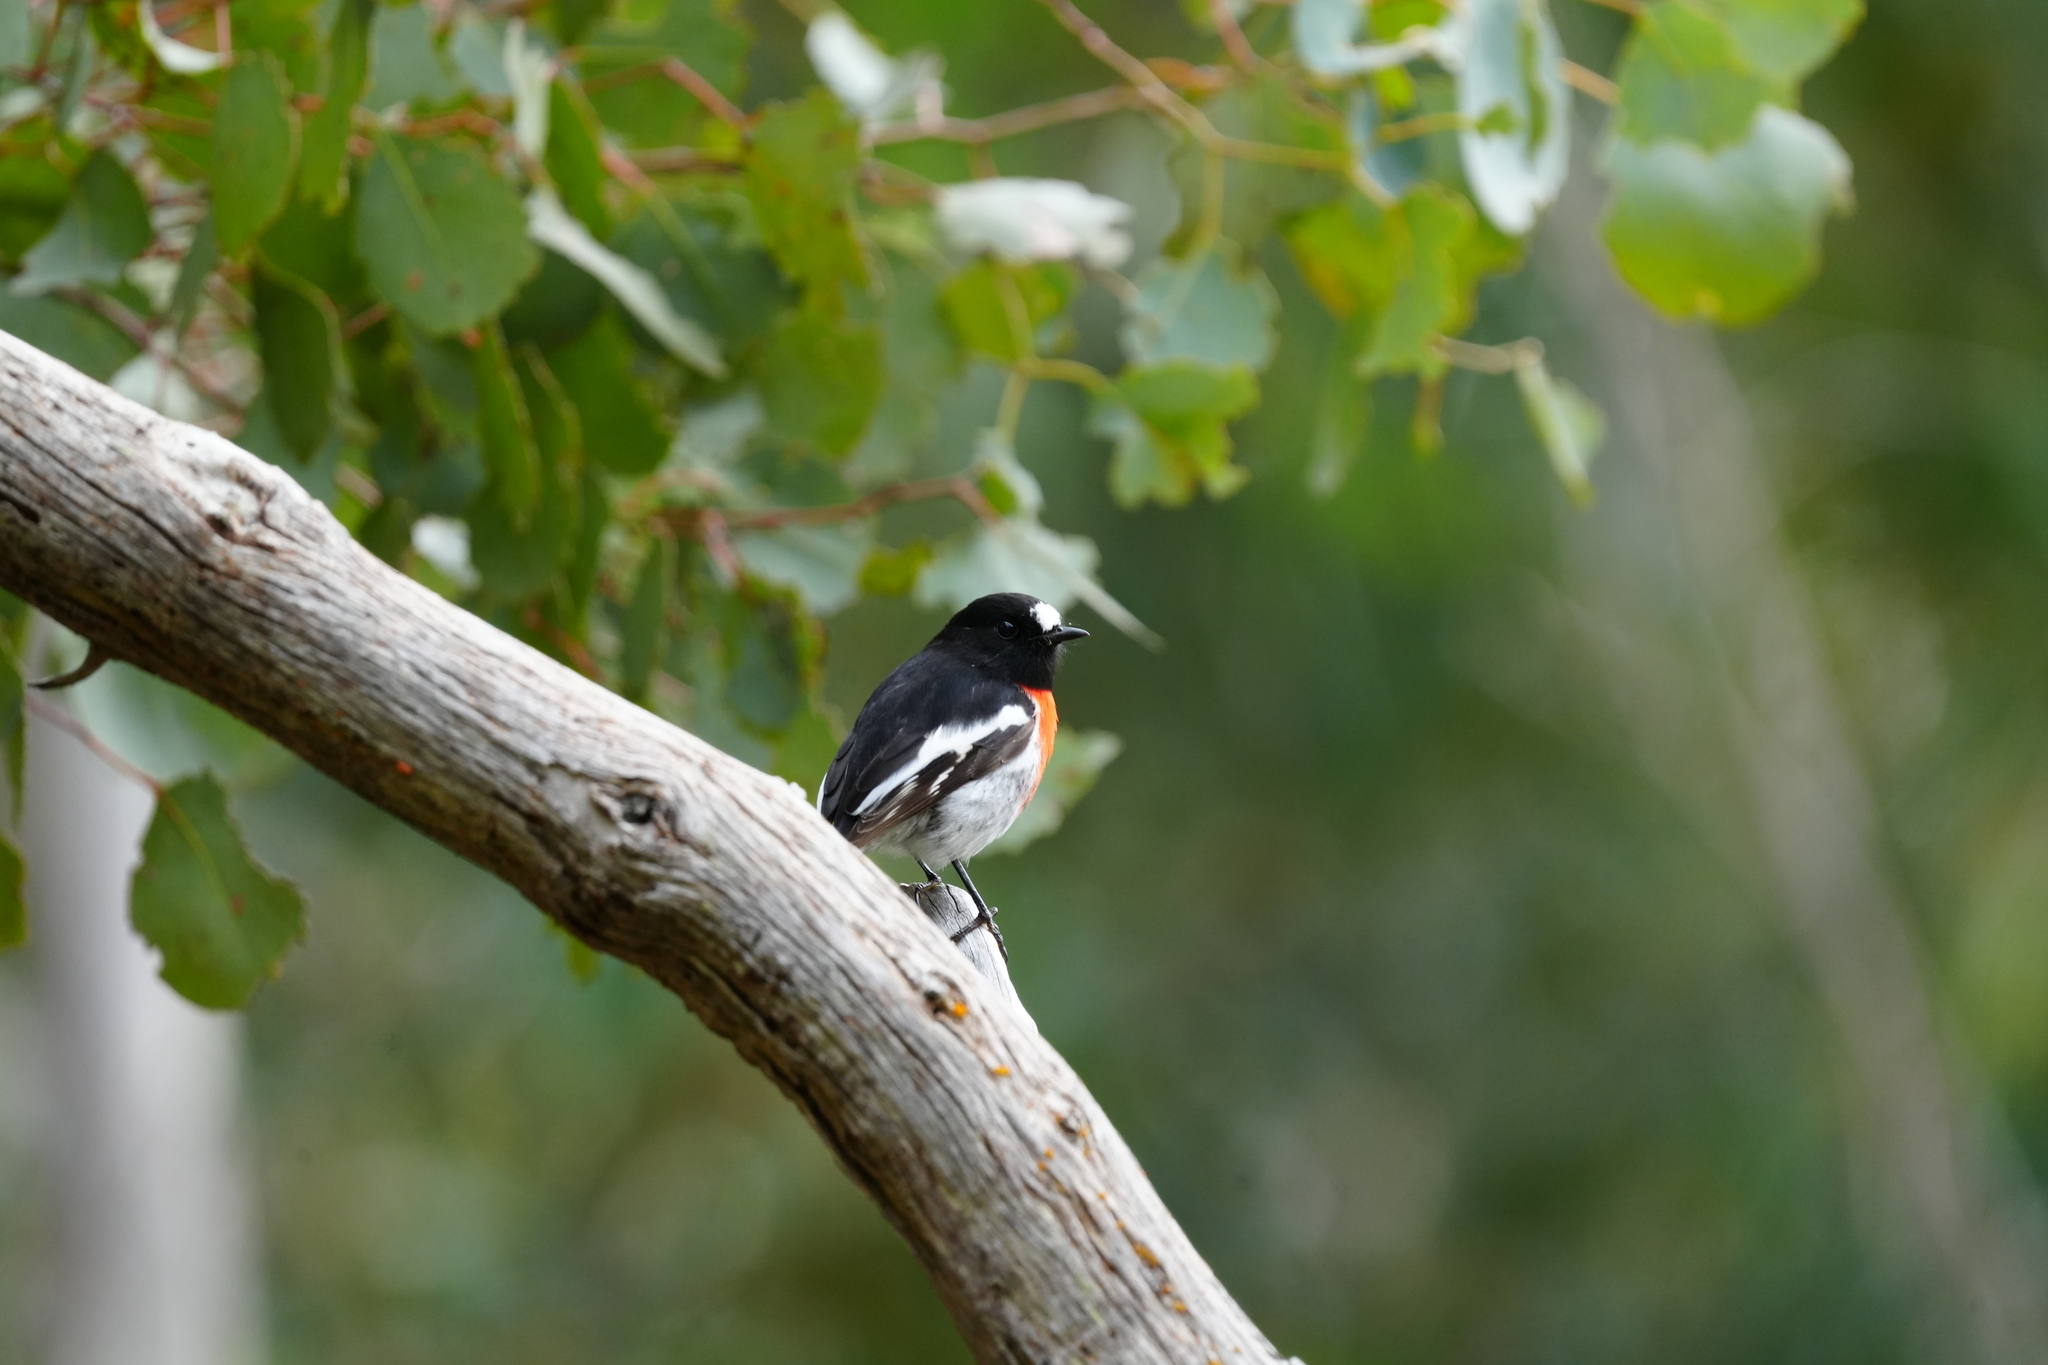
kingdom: Animalia
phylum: Chordata
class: Aves
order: Passeriformes
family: Petroicidae
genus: Petroica
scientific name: Petroica boodang
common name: Scarlet robin
